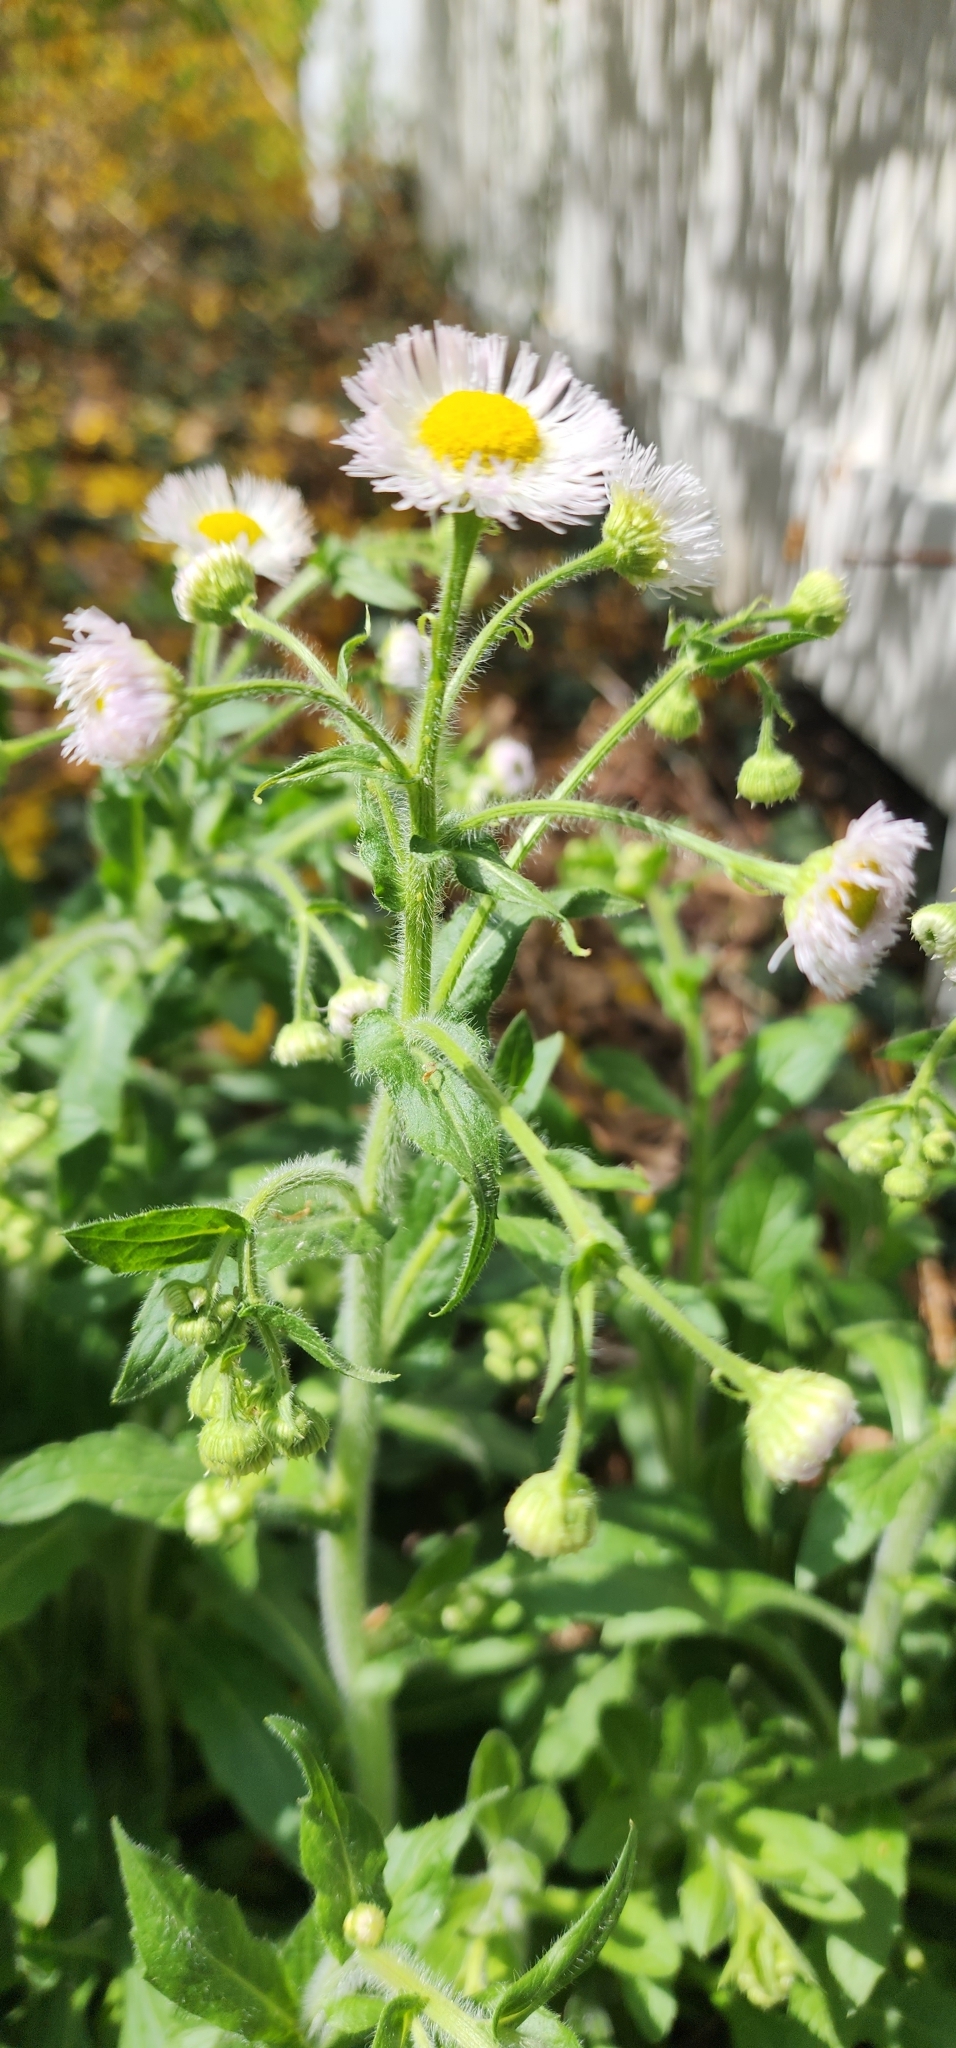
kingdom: Plantae
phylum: Tracheophyta
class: Magnoliopsida
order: Asterales
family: Asteraceae
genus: Erigeron
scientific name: Erigeron philadelphicus
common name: Robin's-plantain
